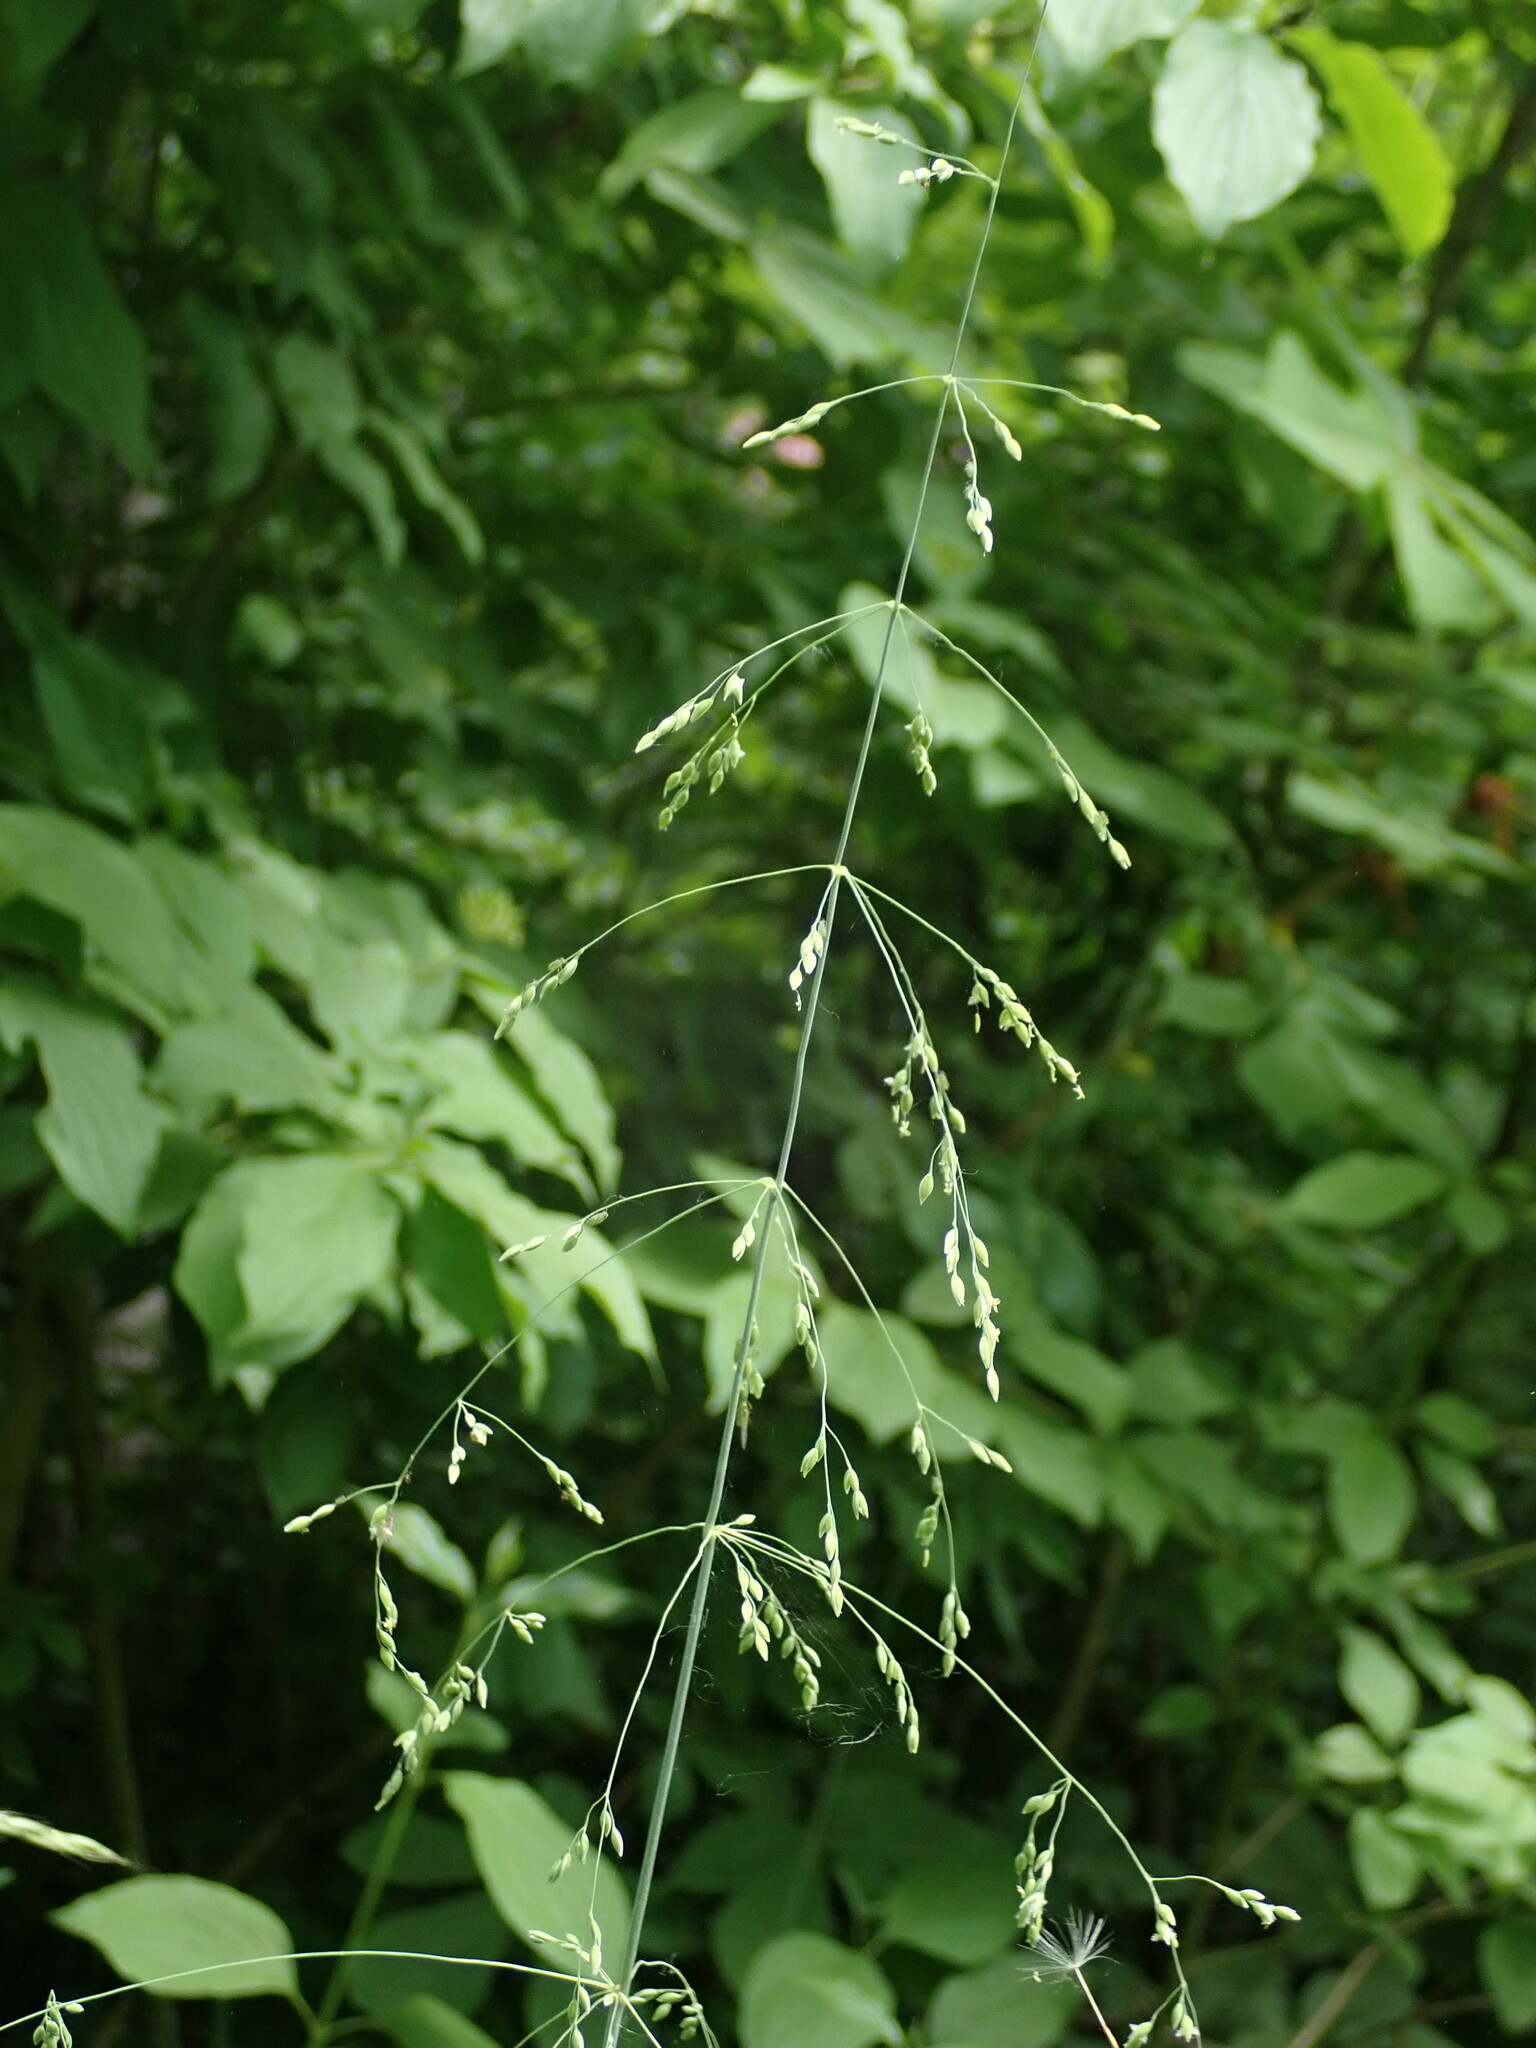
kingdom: Plantae
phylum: Tracheophyta
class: Liliopsida
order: Poales
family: Poaceae
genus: Milium
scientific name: Milium effusum
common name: Wood millet
